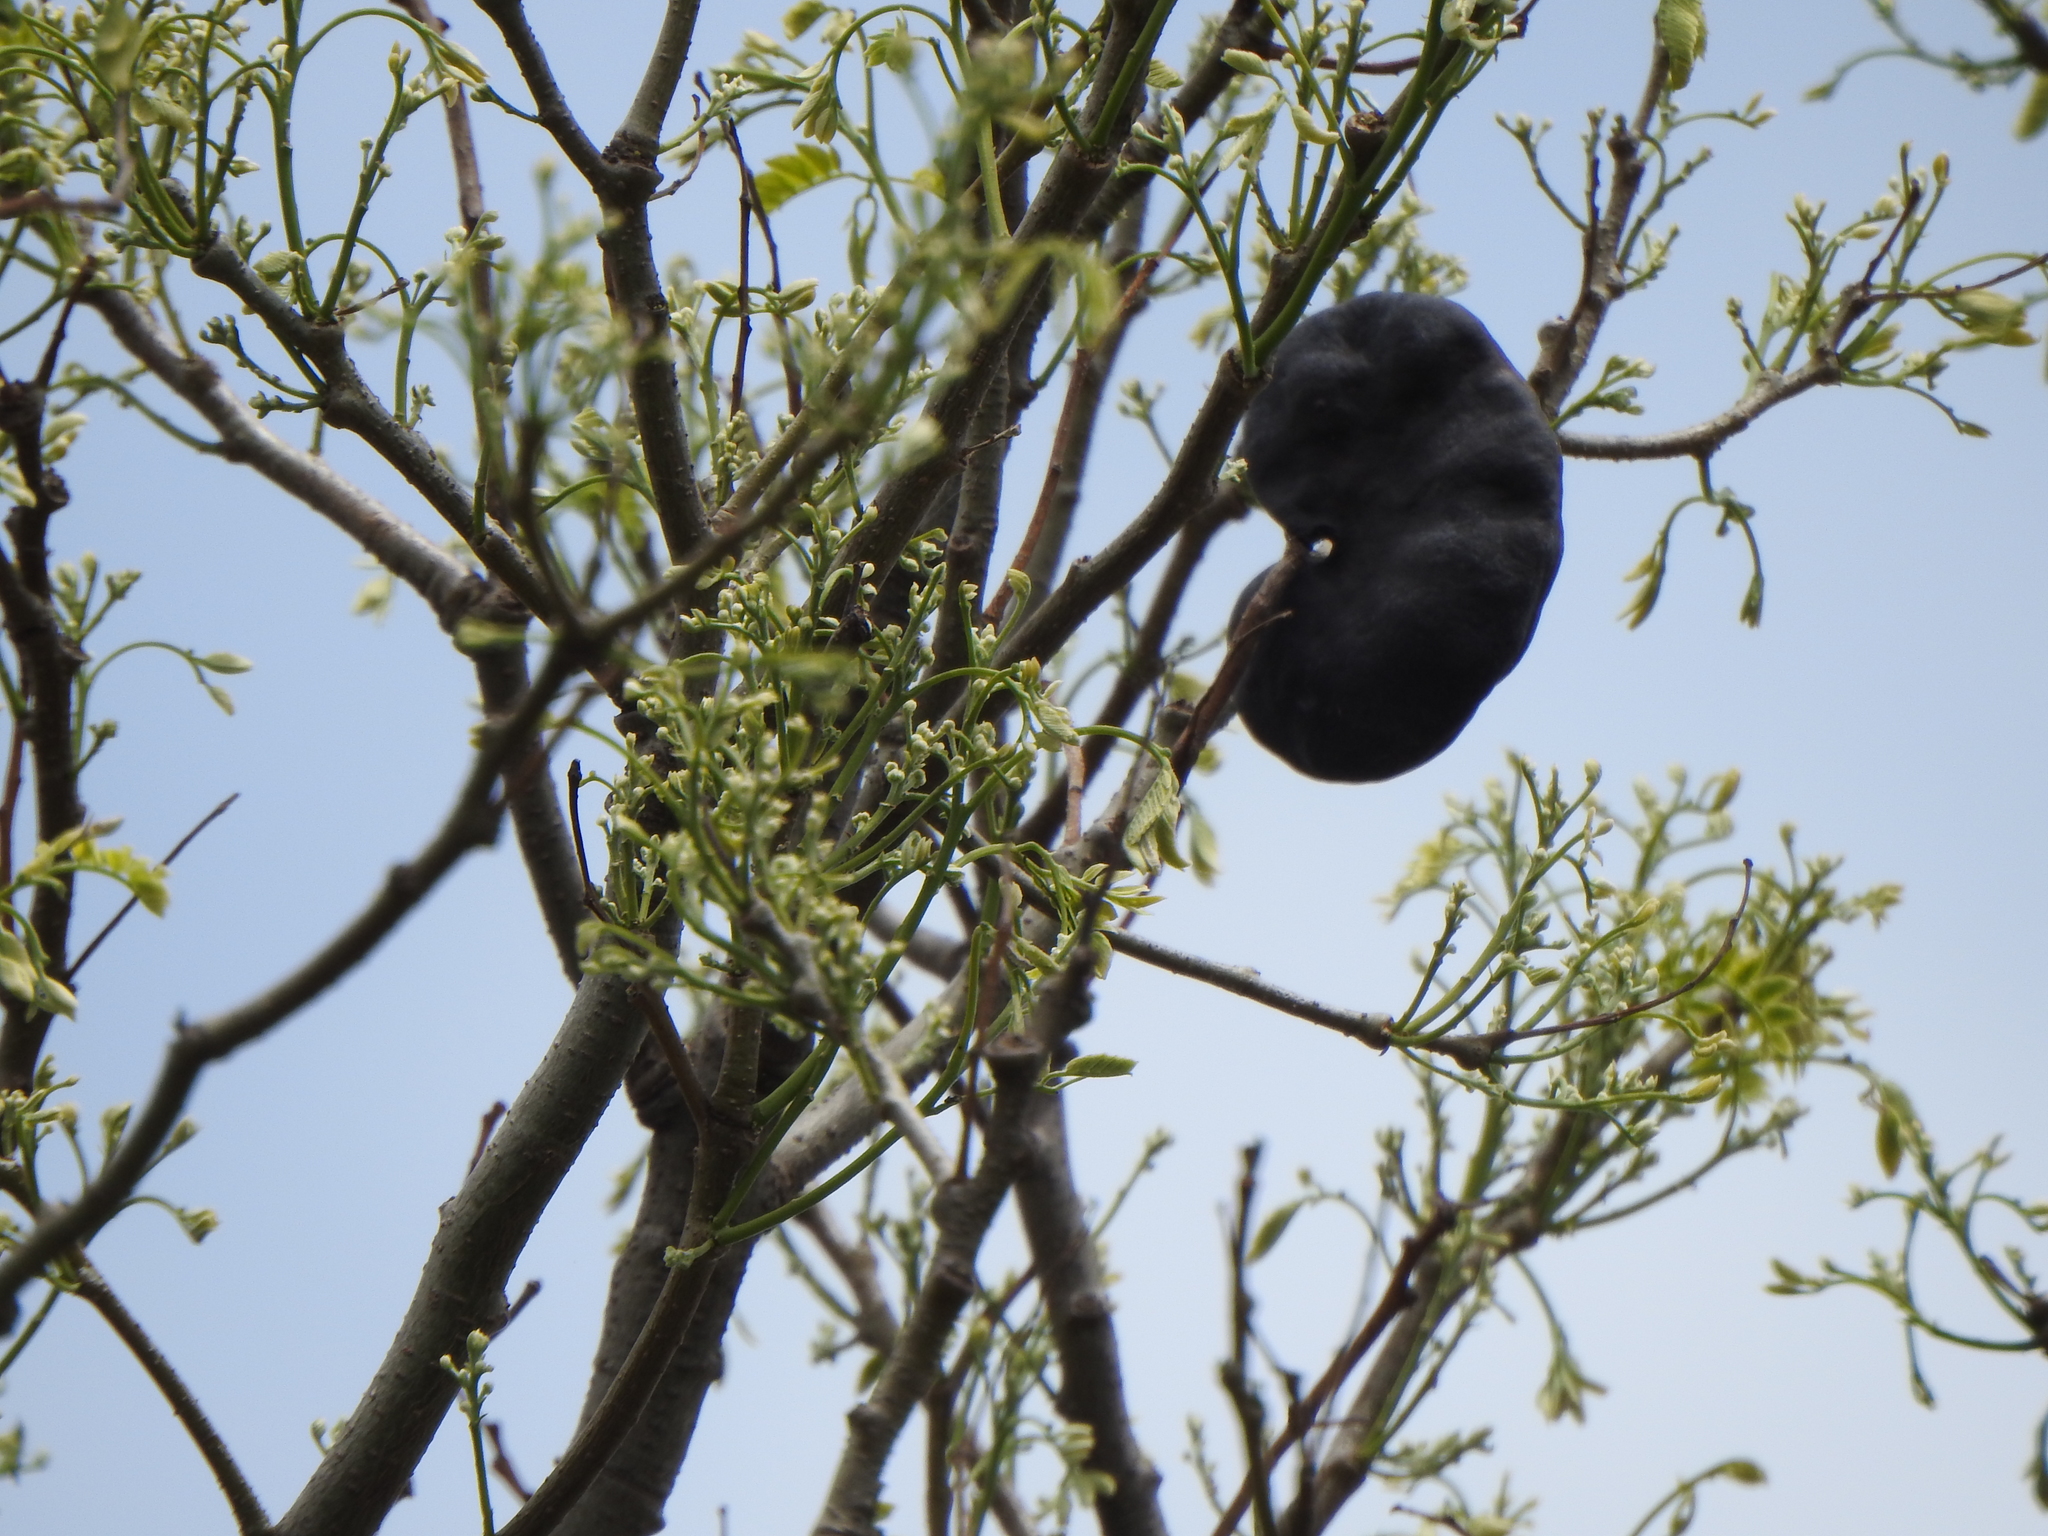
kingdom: Plantae
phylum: Tracheophyta
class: Magnoliopsida
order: Fabales
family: Fabaceae
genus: Enterolobium
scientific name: Enterolobium contortisiliquum
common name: Pacara earpod tree
